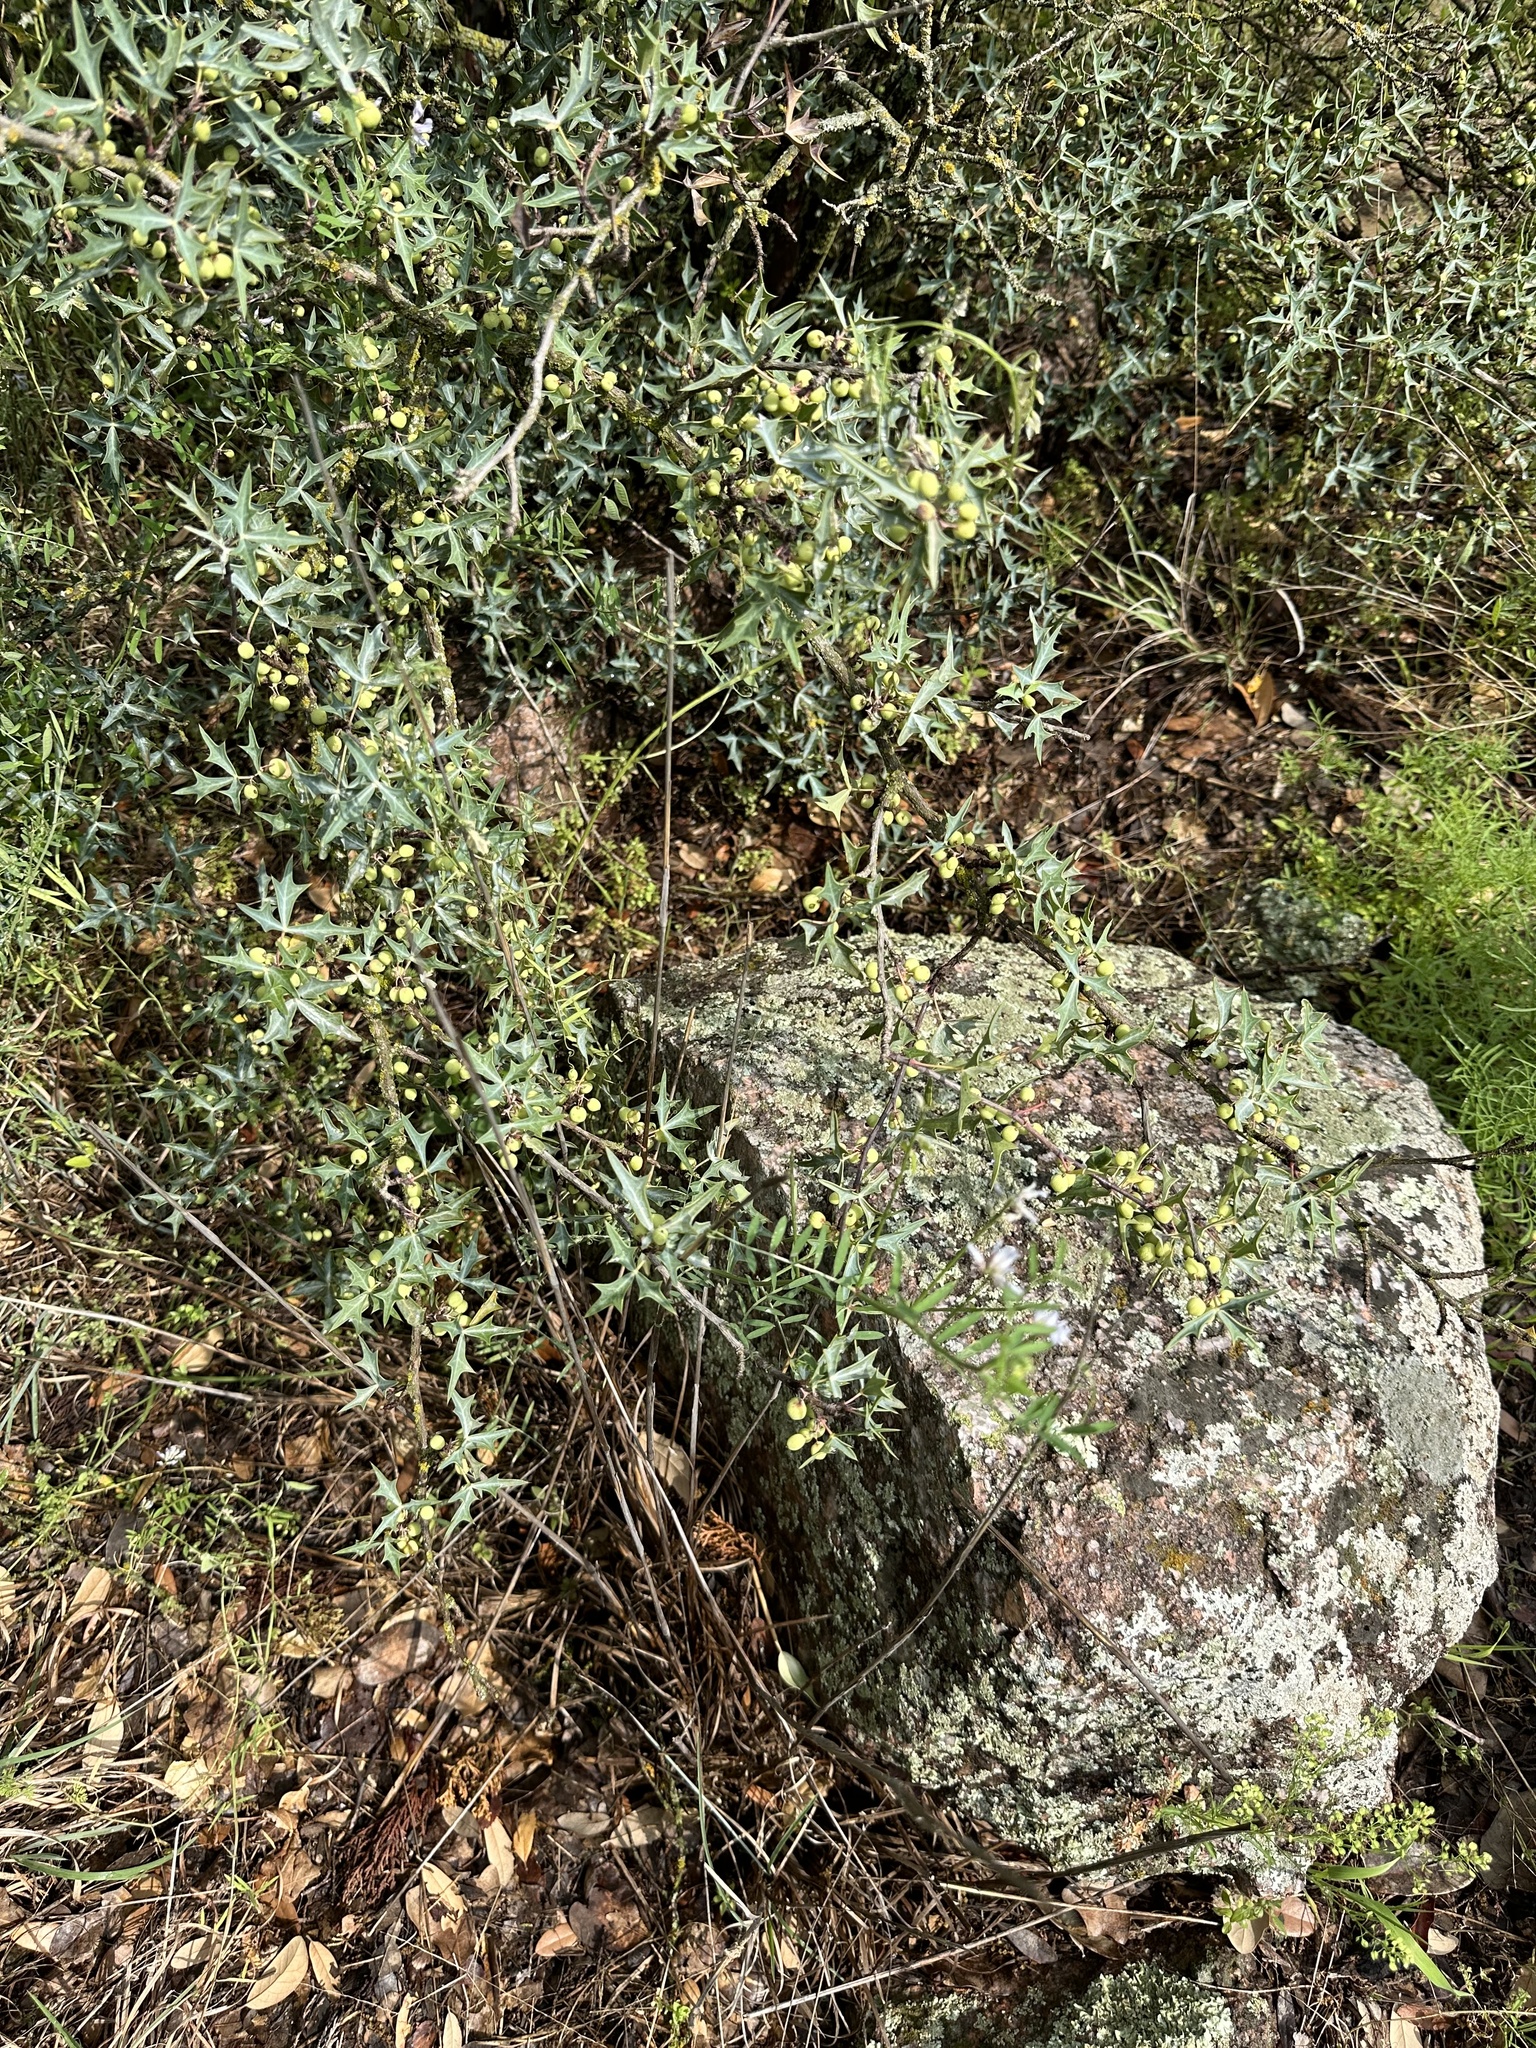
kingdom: Plantae
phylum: Tracheophyta
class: Magnoliopsida
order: Ranunculales
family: Berberidaceae
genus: Alloberberis
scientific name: Alloberberis trifoliolata
